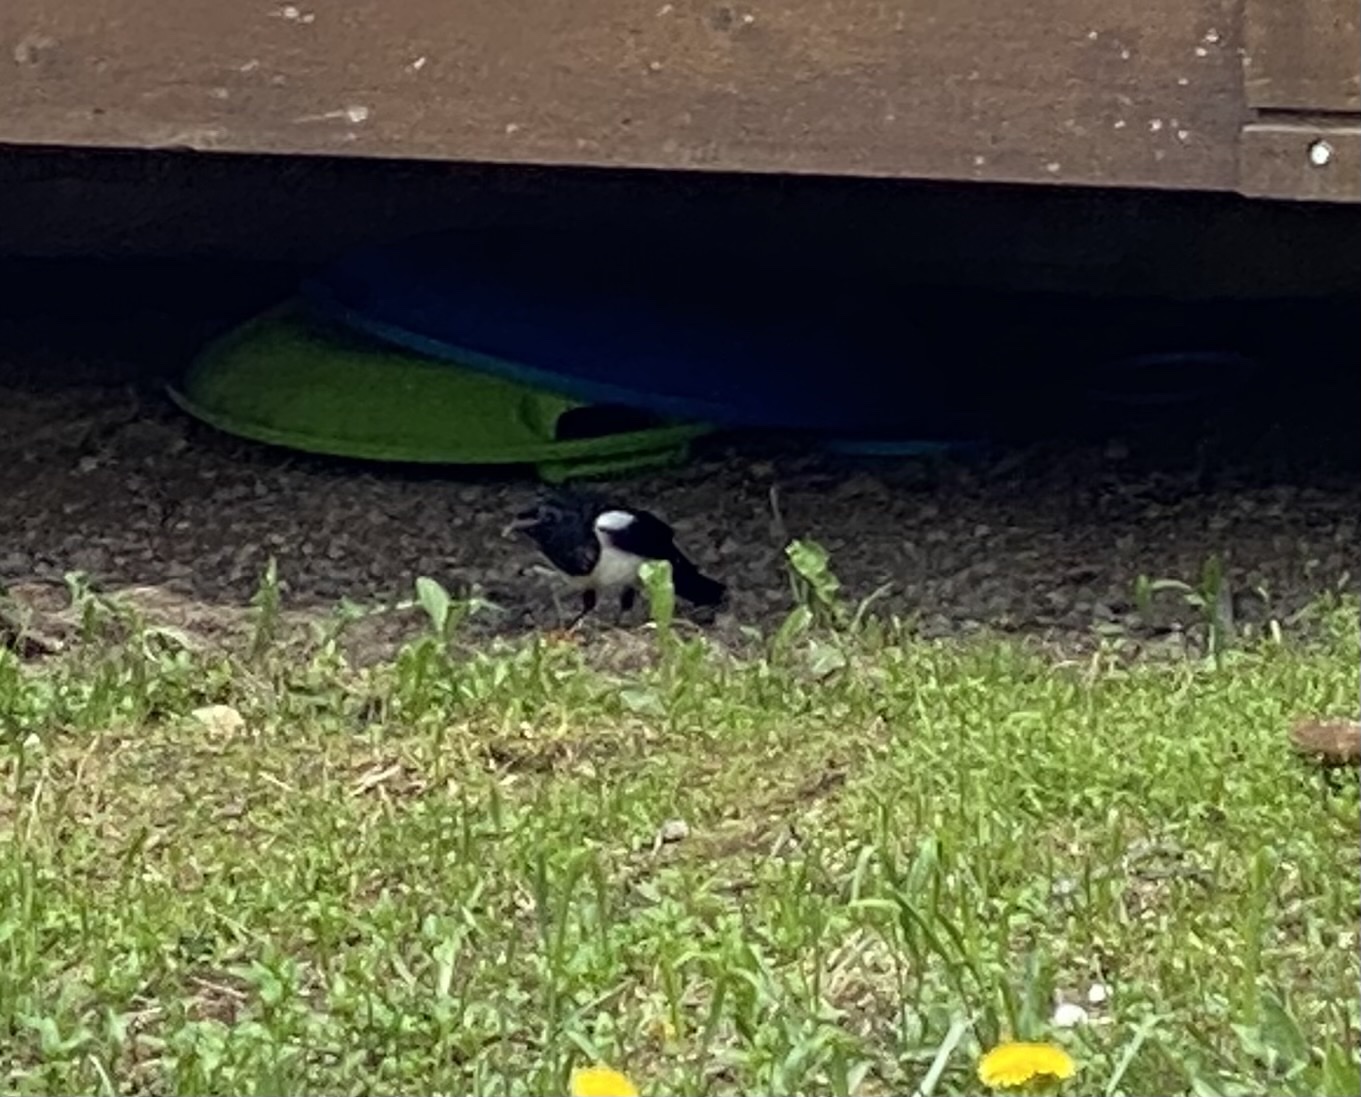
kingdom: Animalia
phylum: Chordata
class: Aves
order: Passeriformes
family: Corvidae
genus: Pica
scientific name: Pica hudsonia
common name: Black-billed magpie
